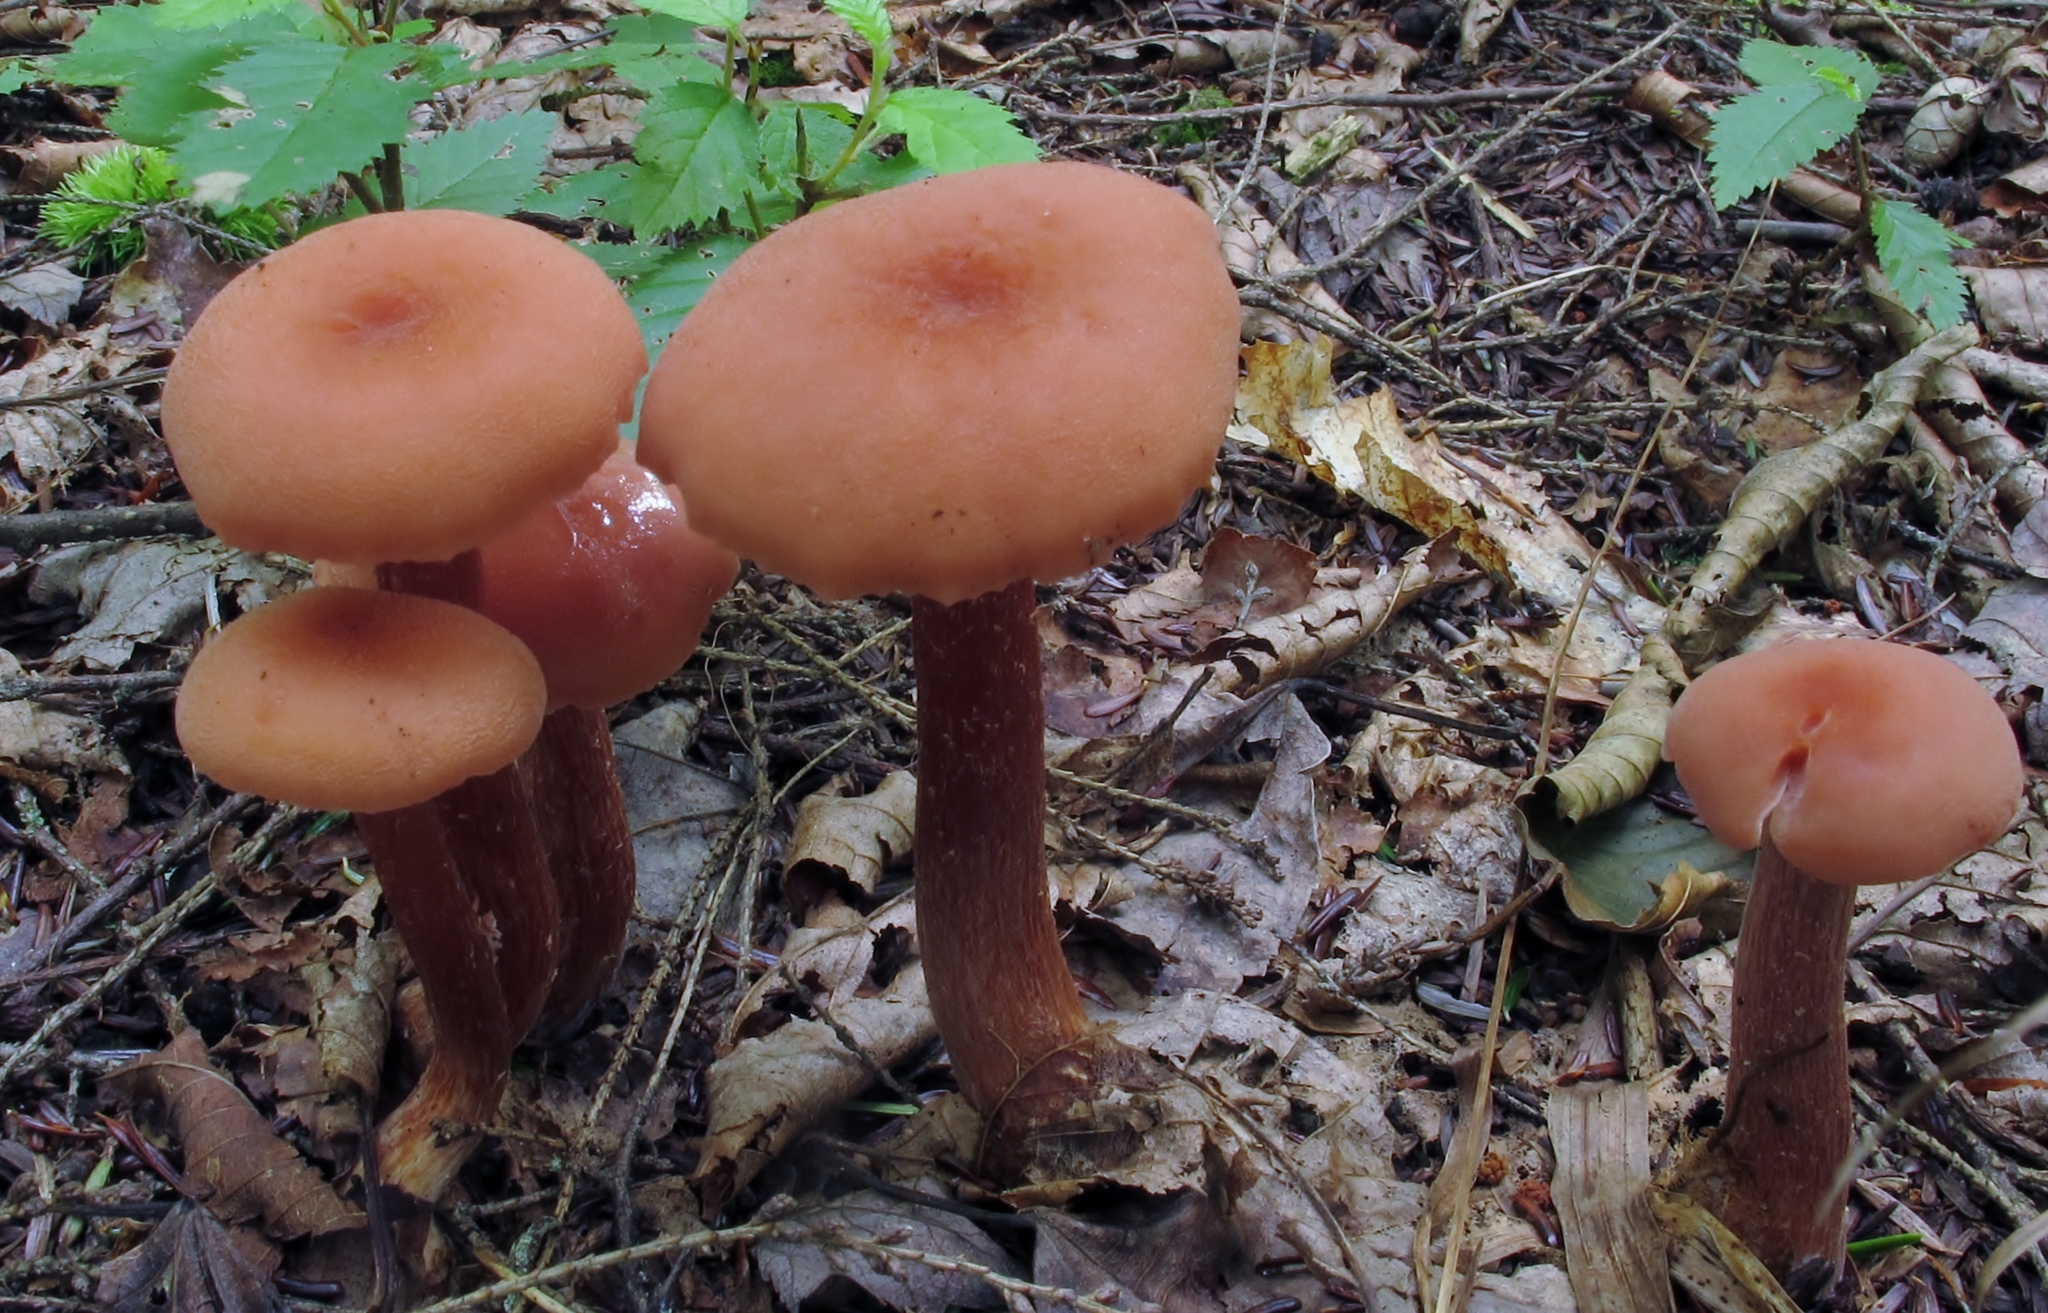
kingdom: Fungi
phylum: Basidiomycota
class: Agaricomycetes
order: Agaricales
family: Hydnangiaceae
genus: Laccaria
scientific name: Laccaria proxima
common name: Scurfy deceiver
